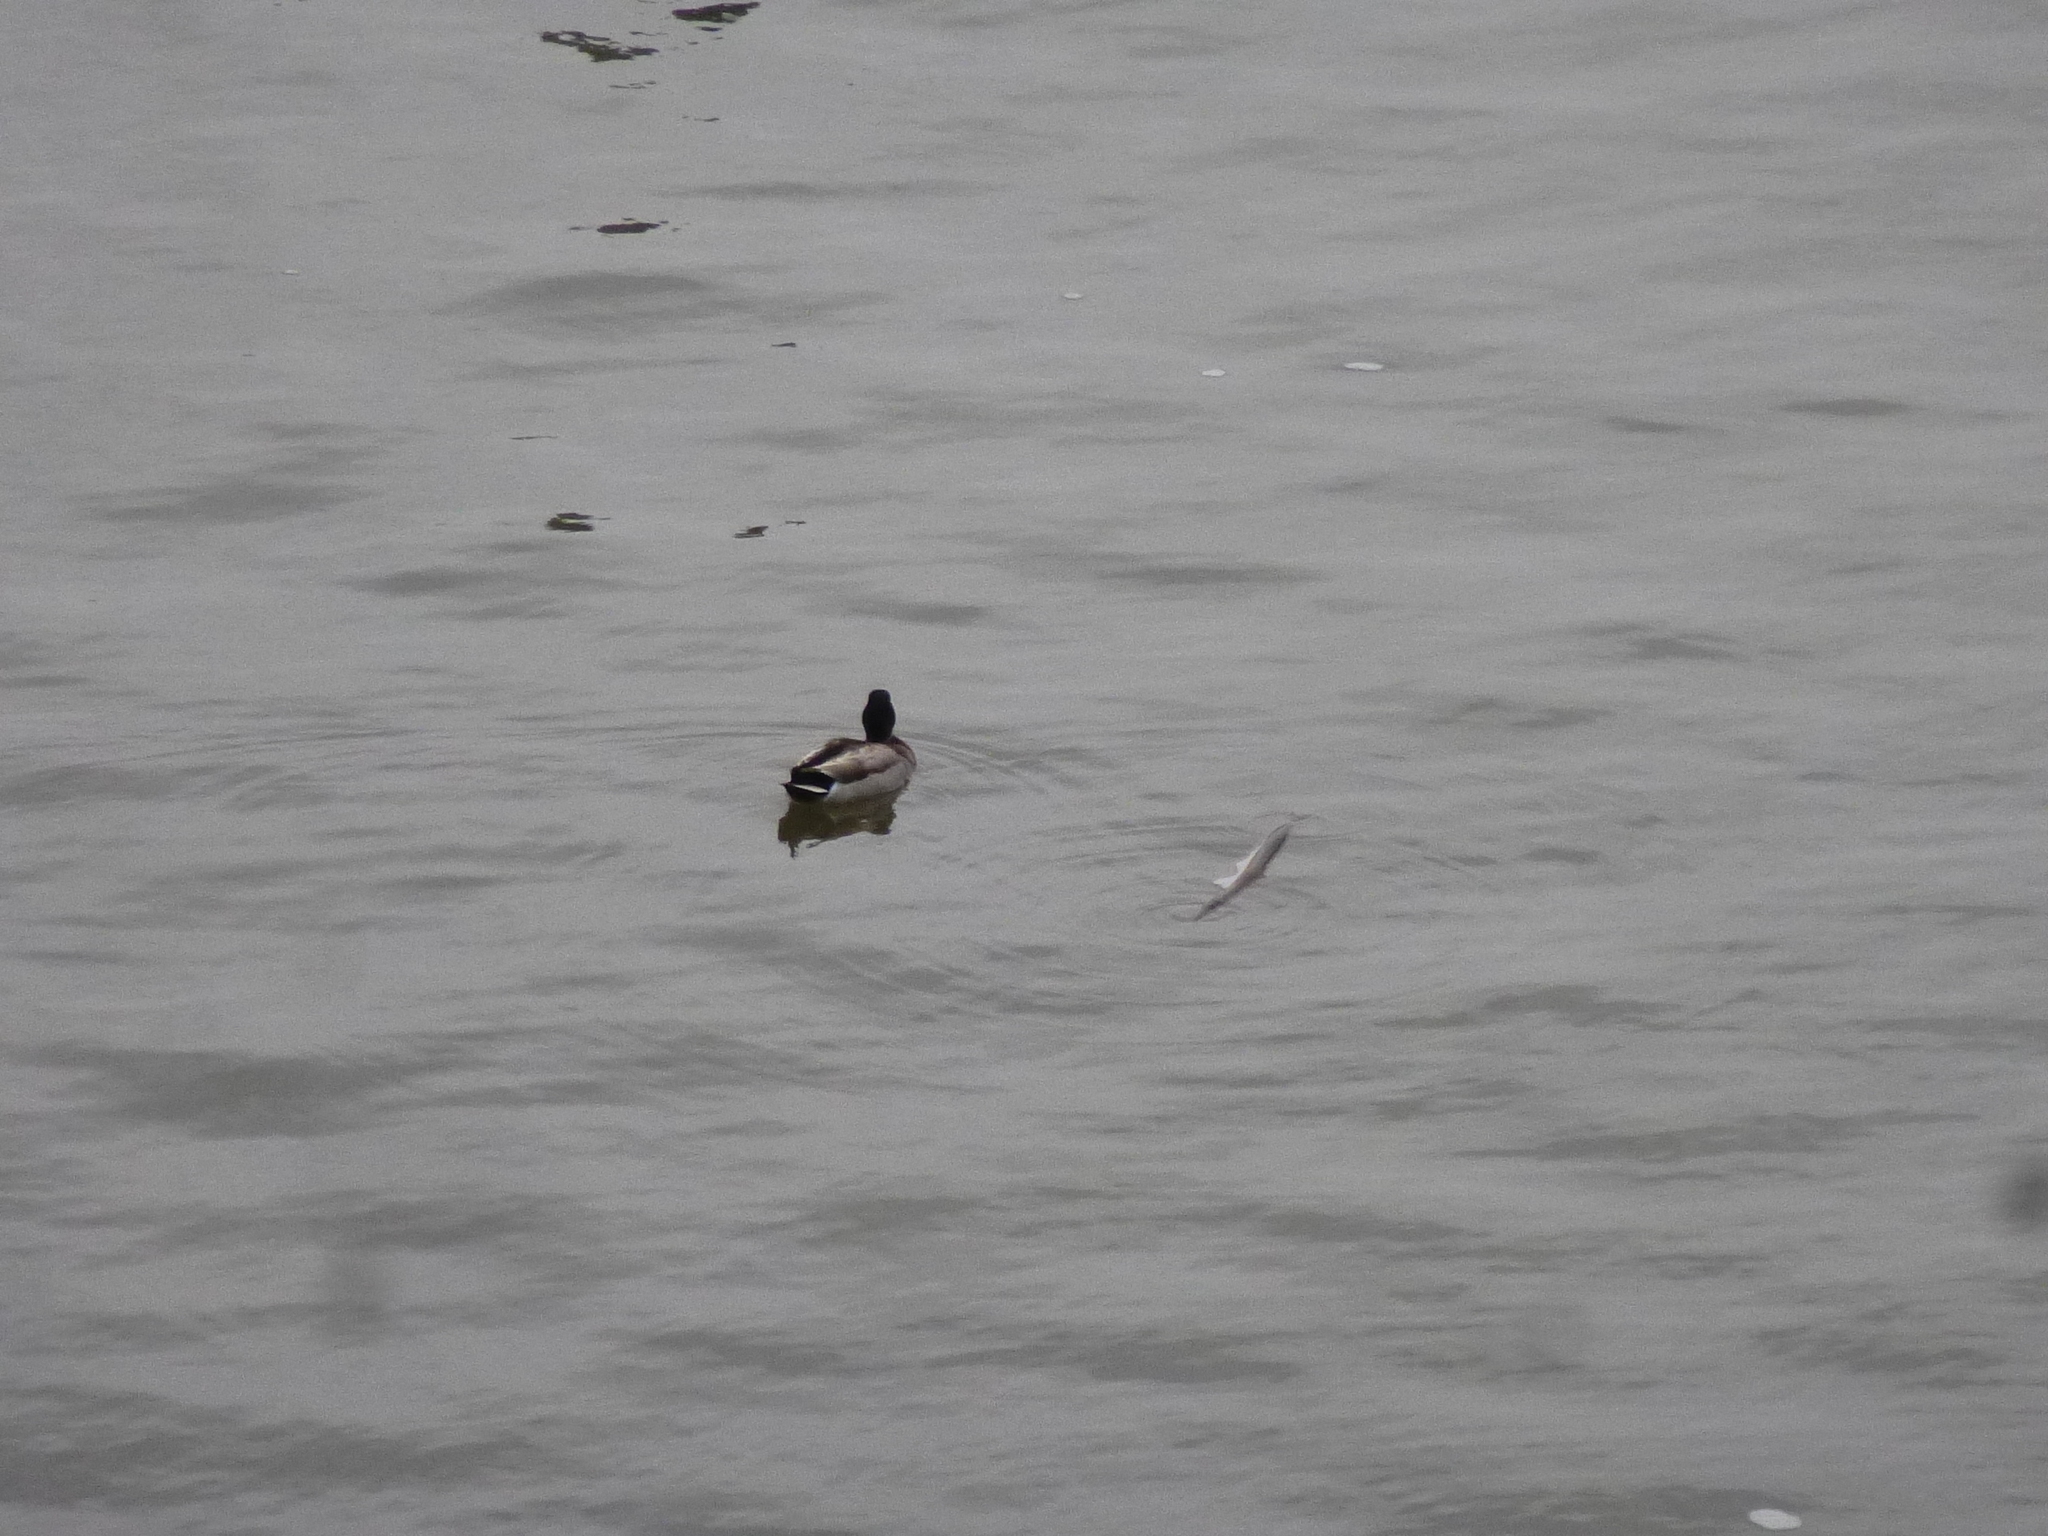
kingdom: Animalia
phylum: Chordata
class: Aves
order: Anseriformes
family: Anatidae
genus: Anas
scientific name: Anas platyrhynchos
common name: Mallard
